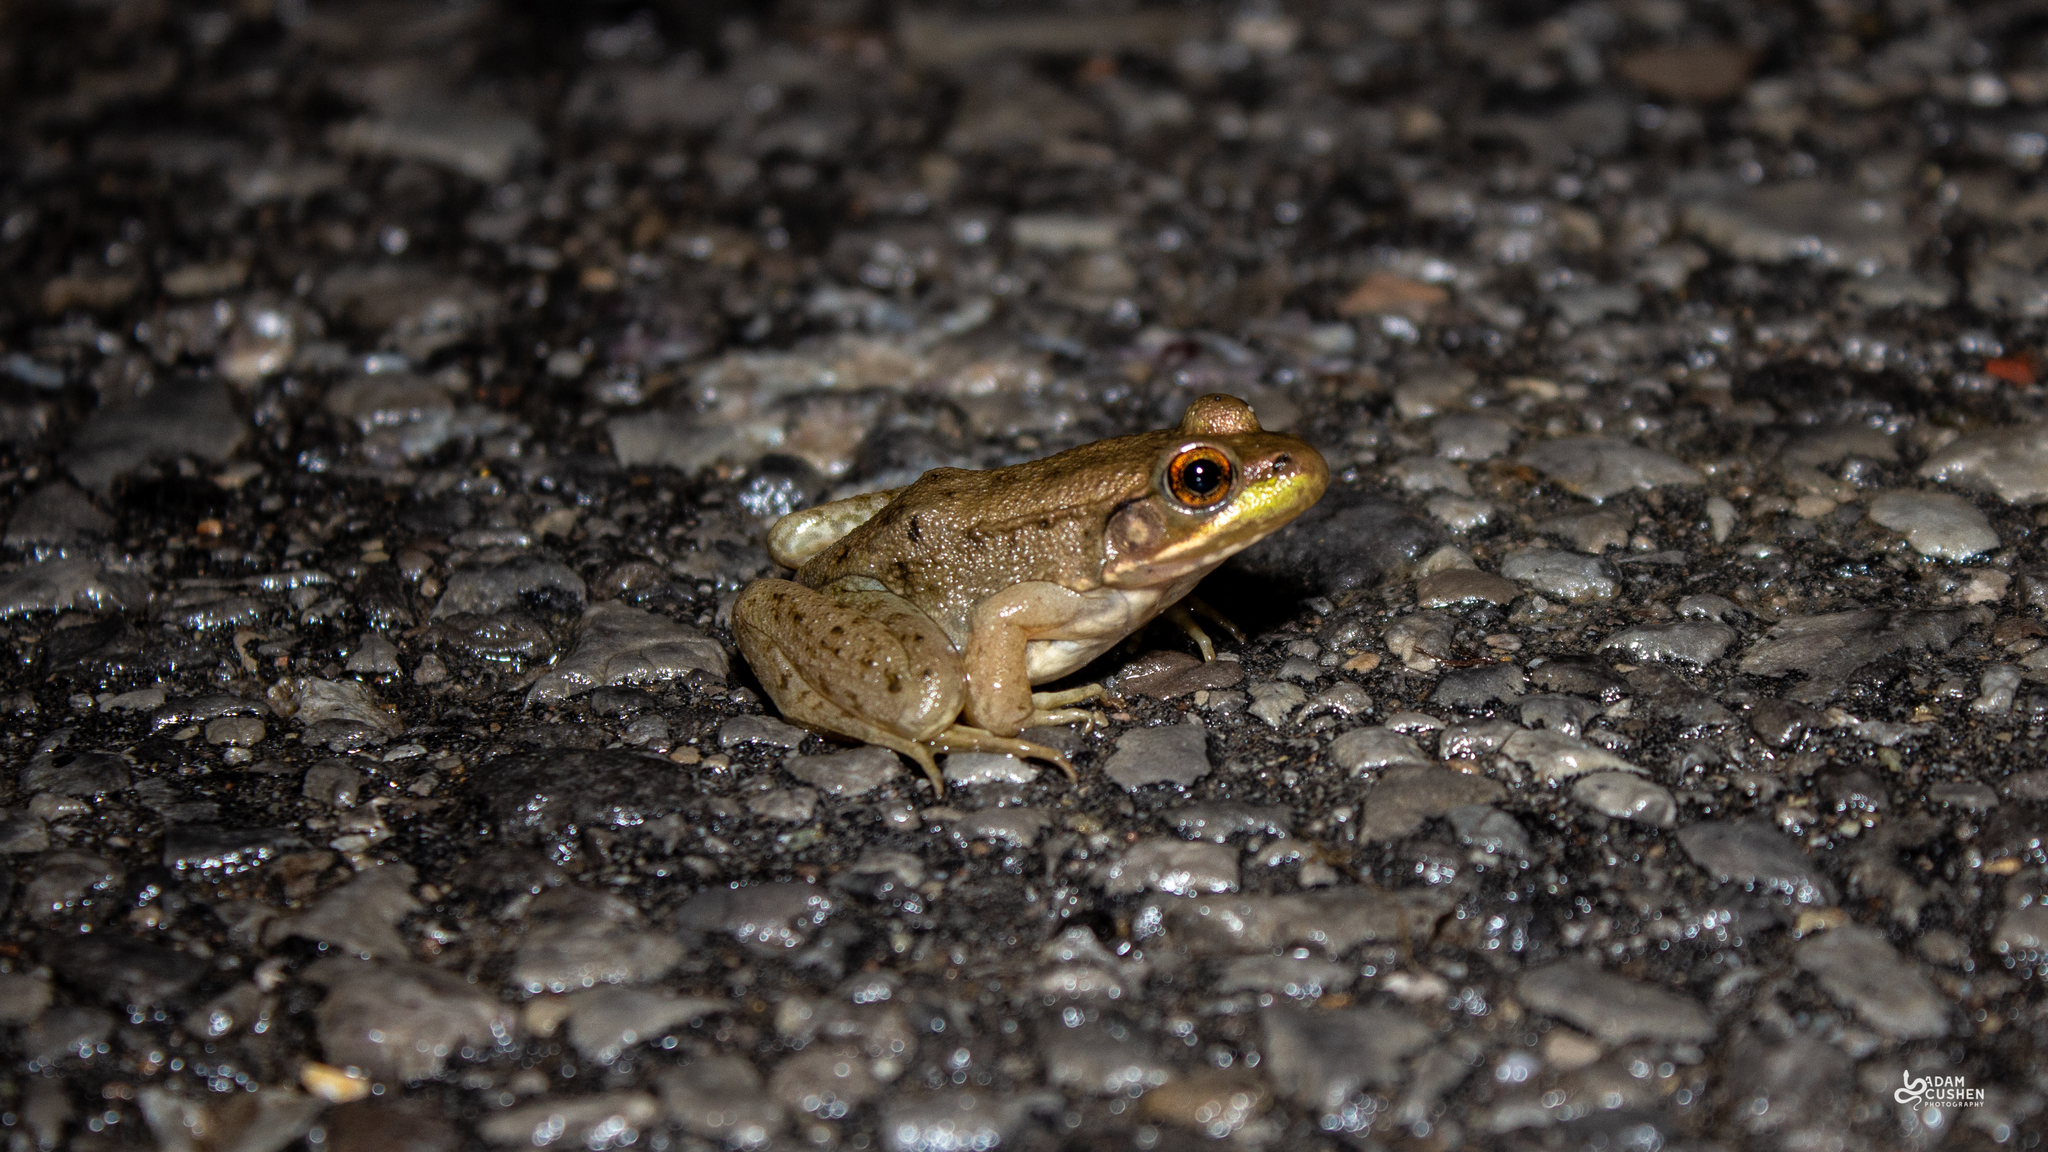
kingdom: Animalia
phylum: Chordata
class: Amphibia
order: Anura
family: Ranidae
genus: Lithobates
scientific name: Lithobates clamitans
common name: Green frog
